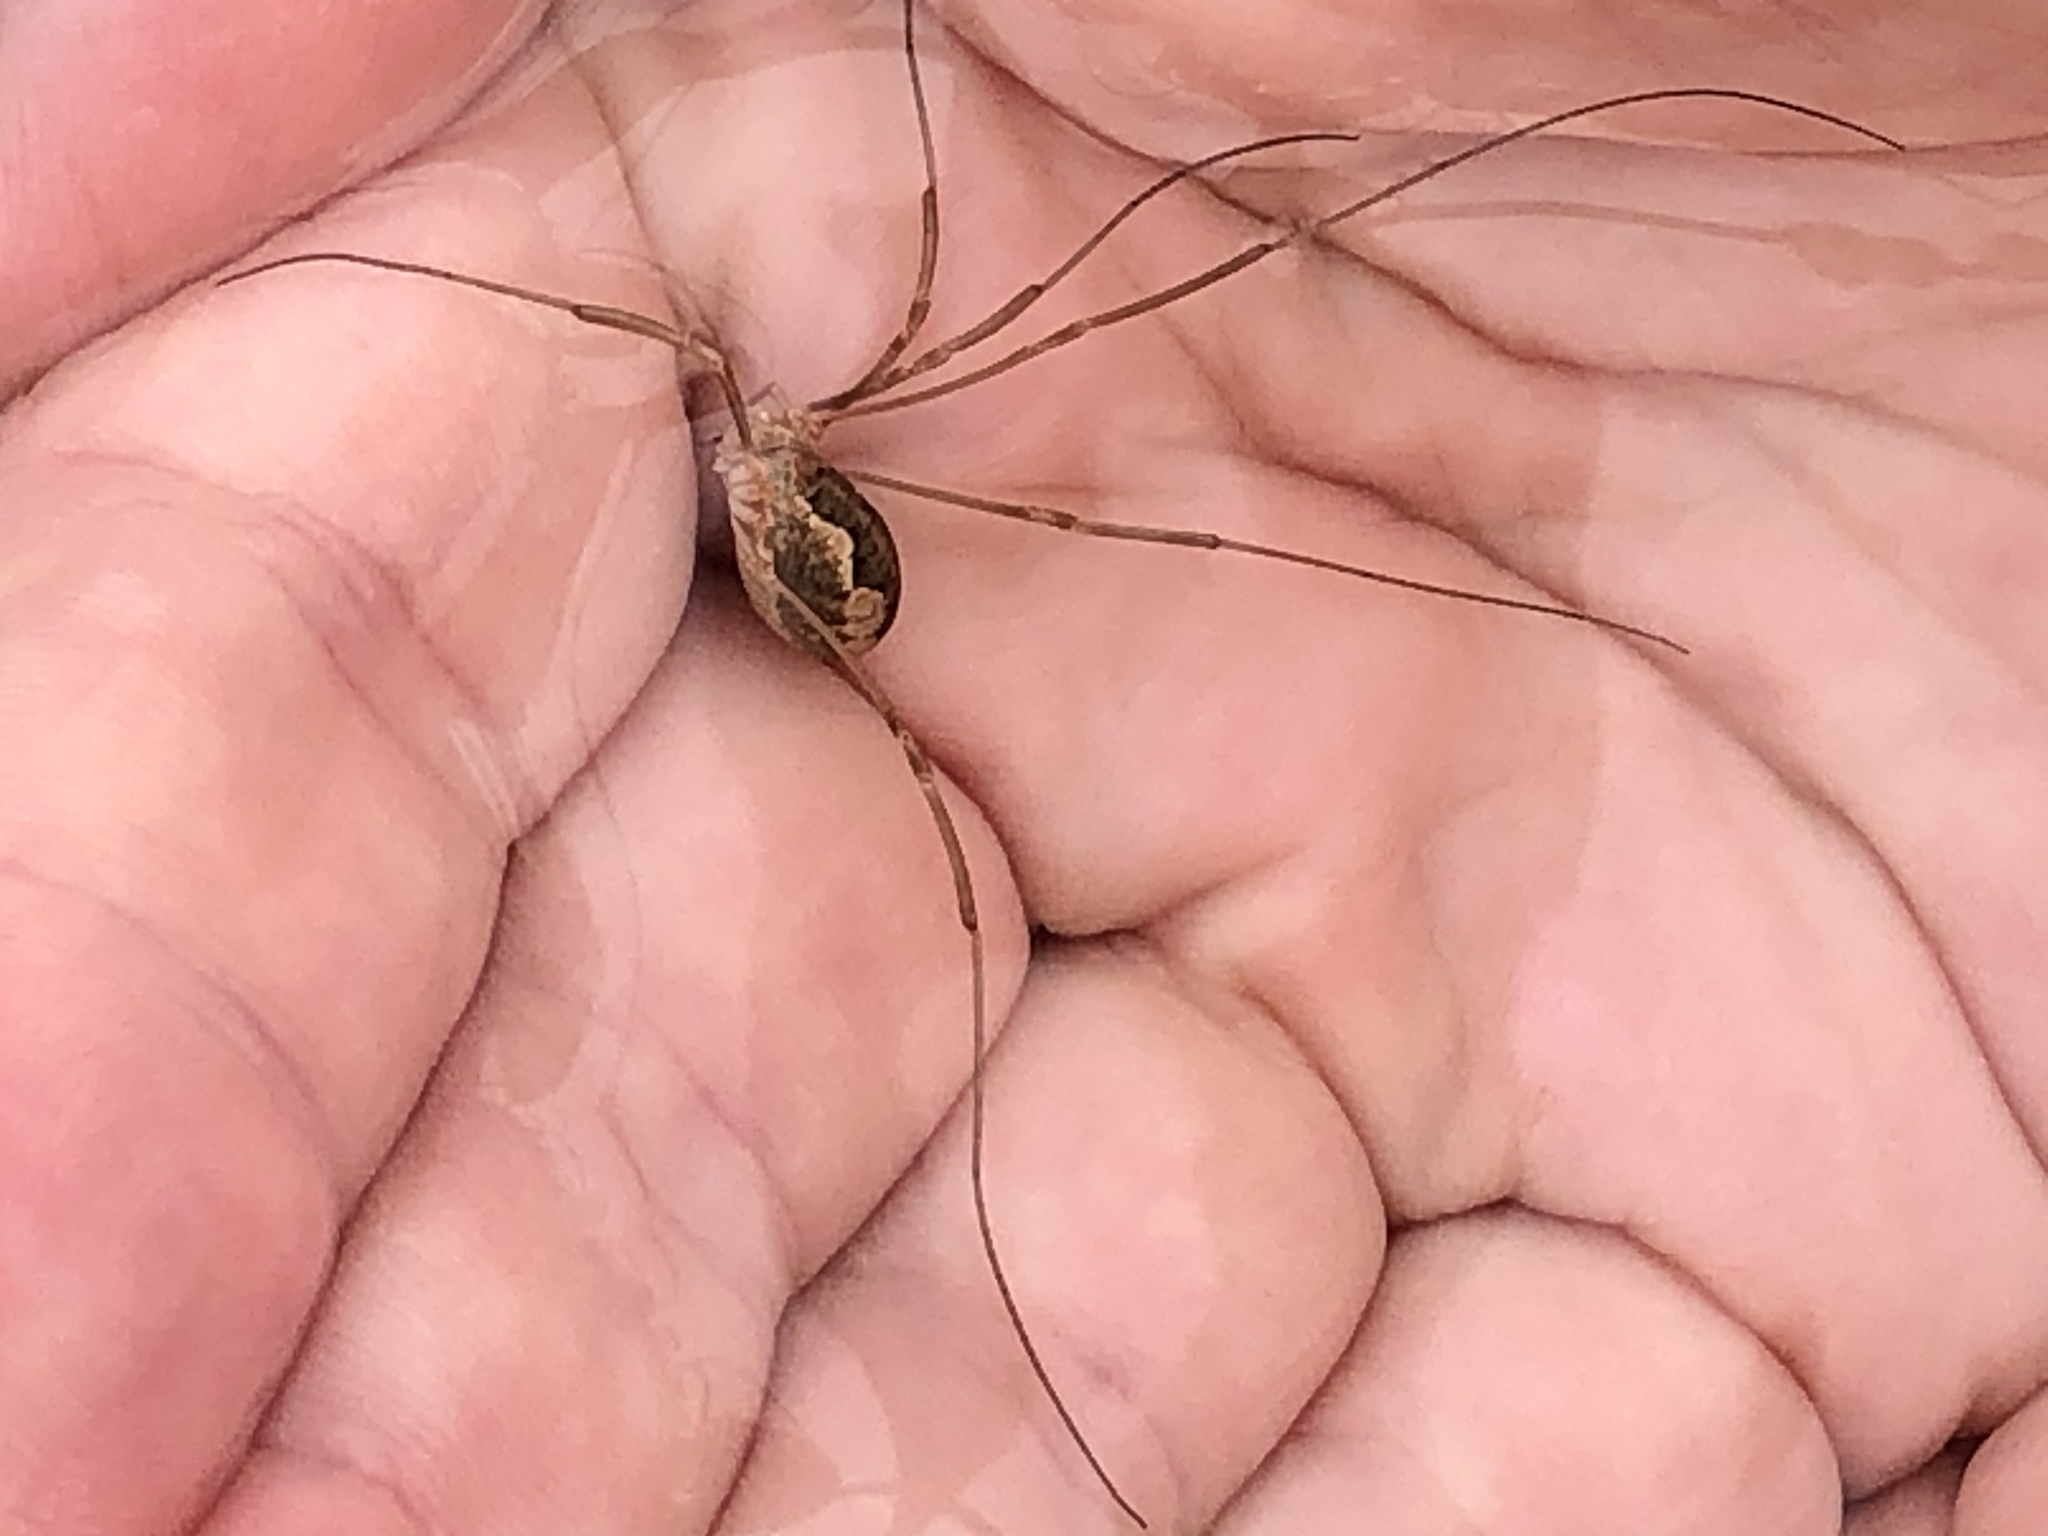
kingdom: Animalia
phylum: Arthropoda
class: Arachnida
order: Opiliones
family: Phalangiidae
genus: Phalangium
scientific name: Phalangium opilio
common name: Daddy longleg
